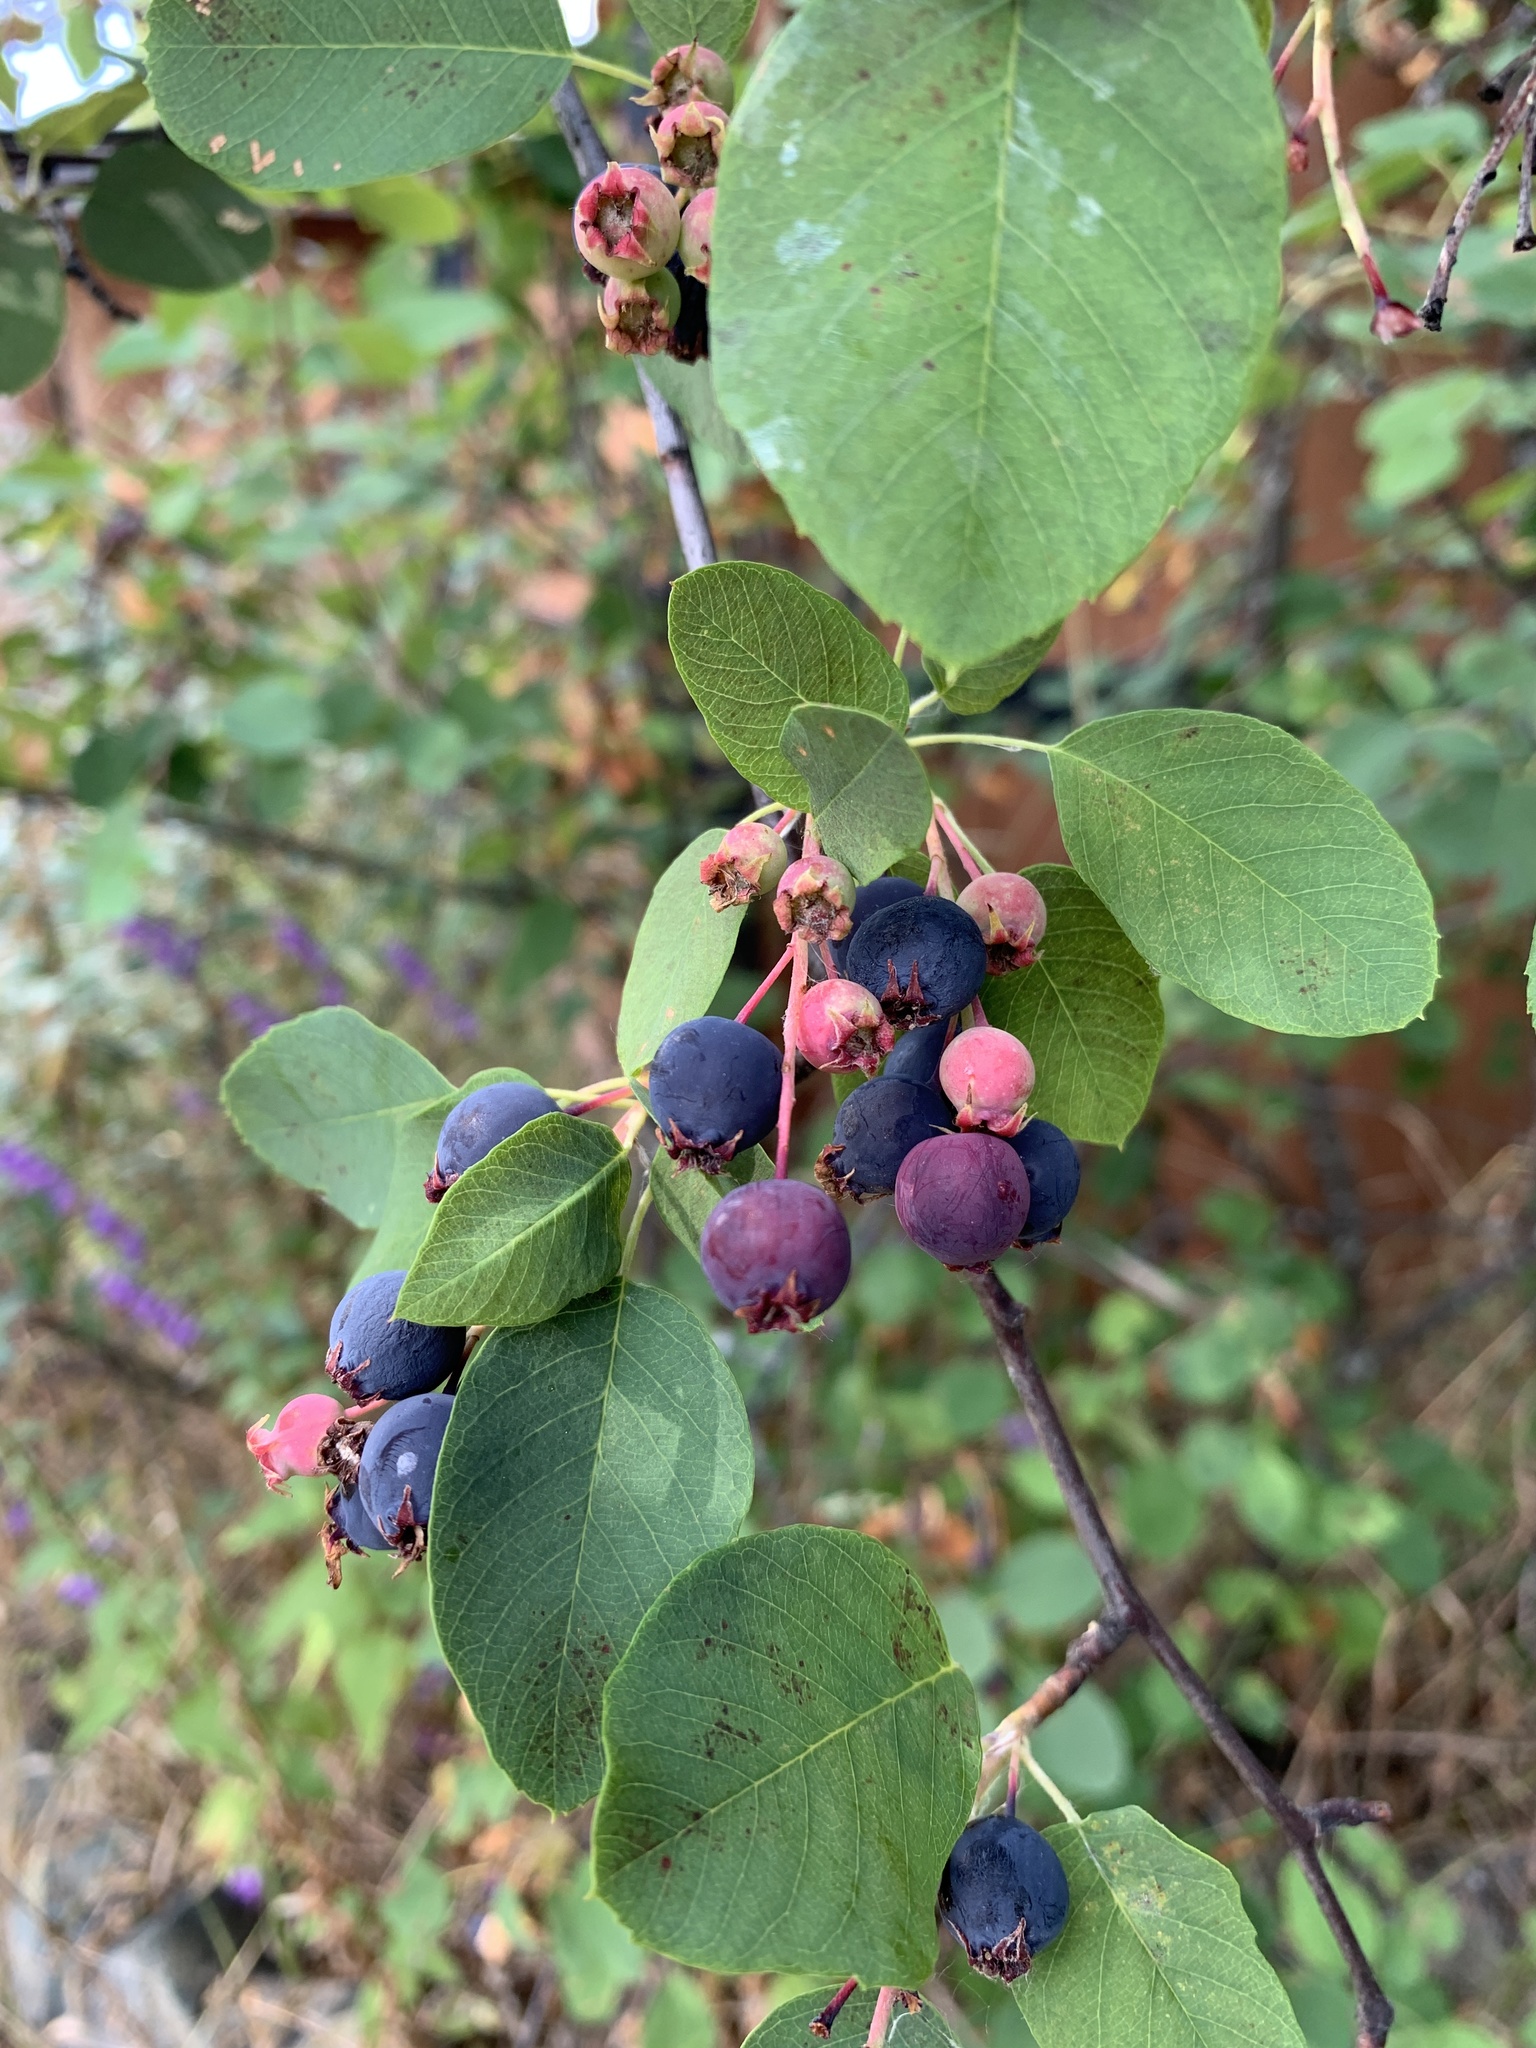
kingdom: Plantae
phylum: Tracheophyta
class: Magnoliopsida
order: Rosales
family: Rosaceae
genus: Amelanchier
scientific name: Amelanchier alnifolia
